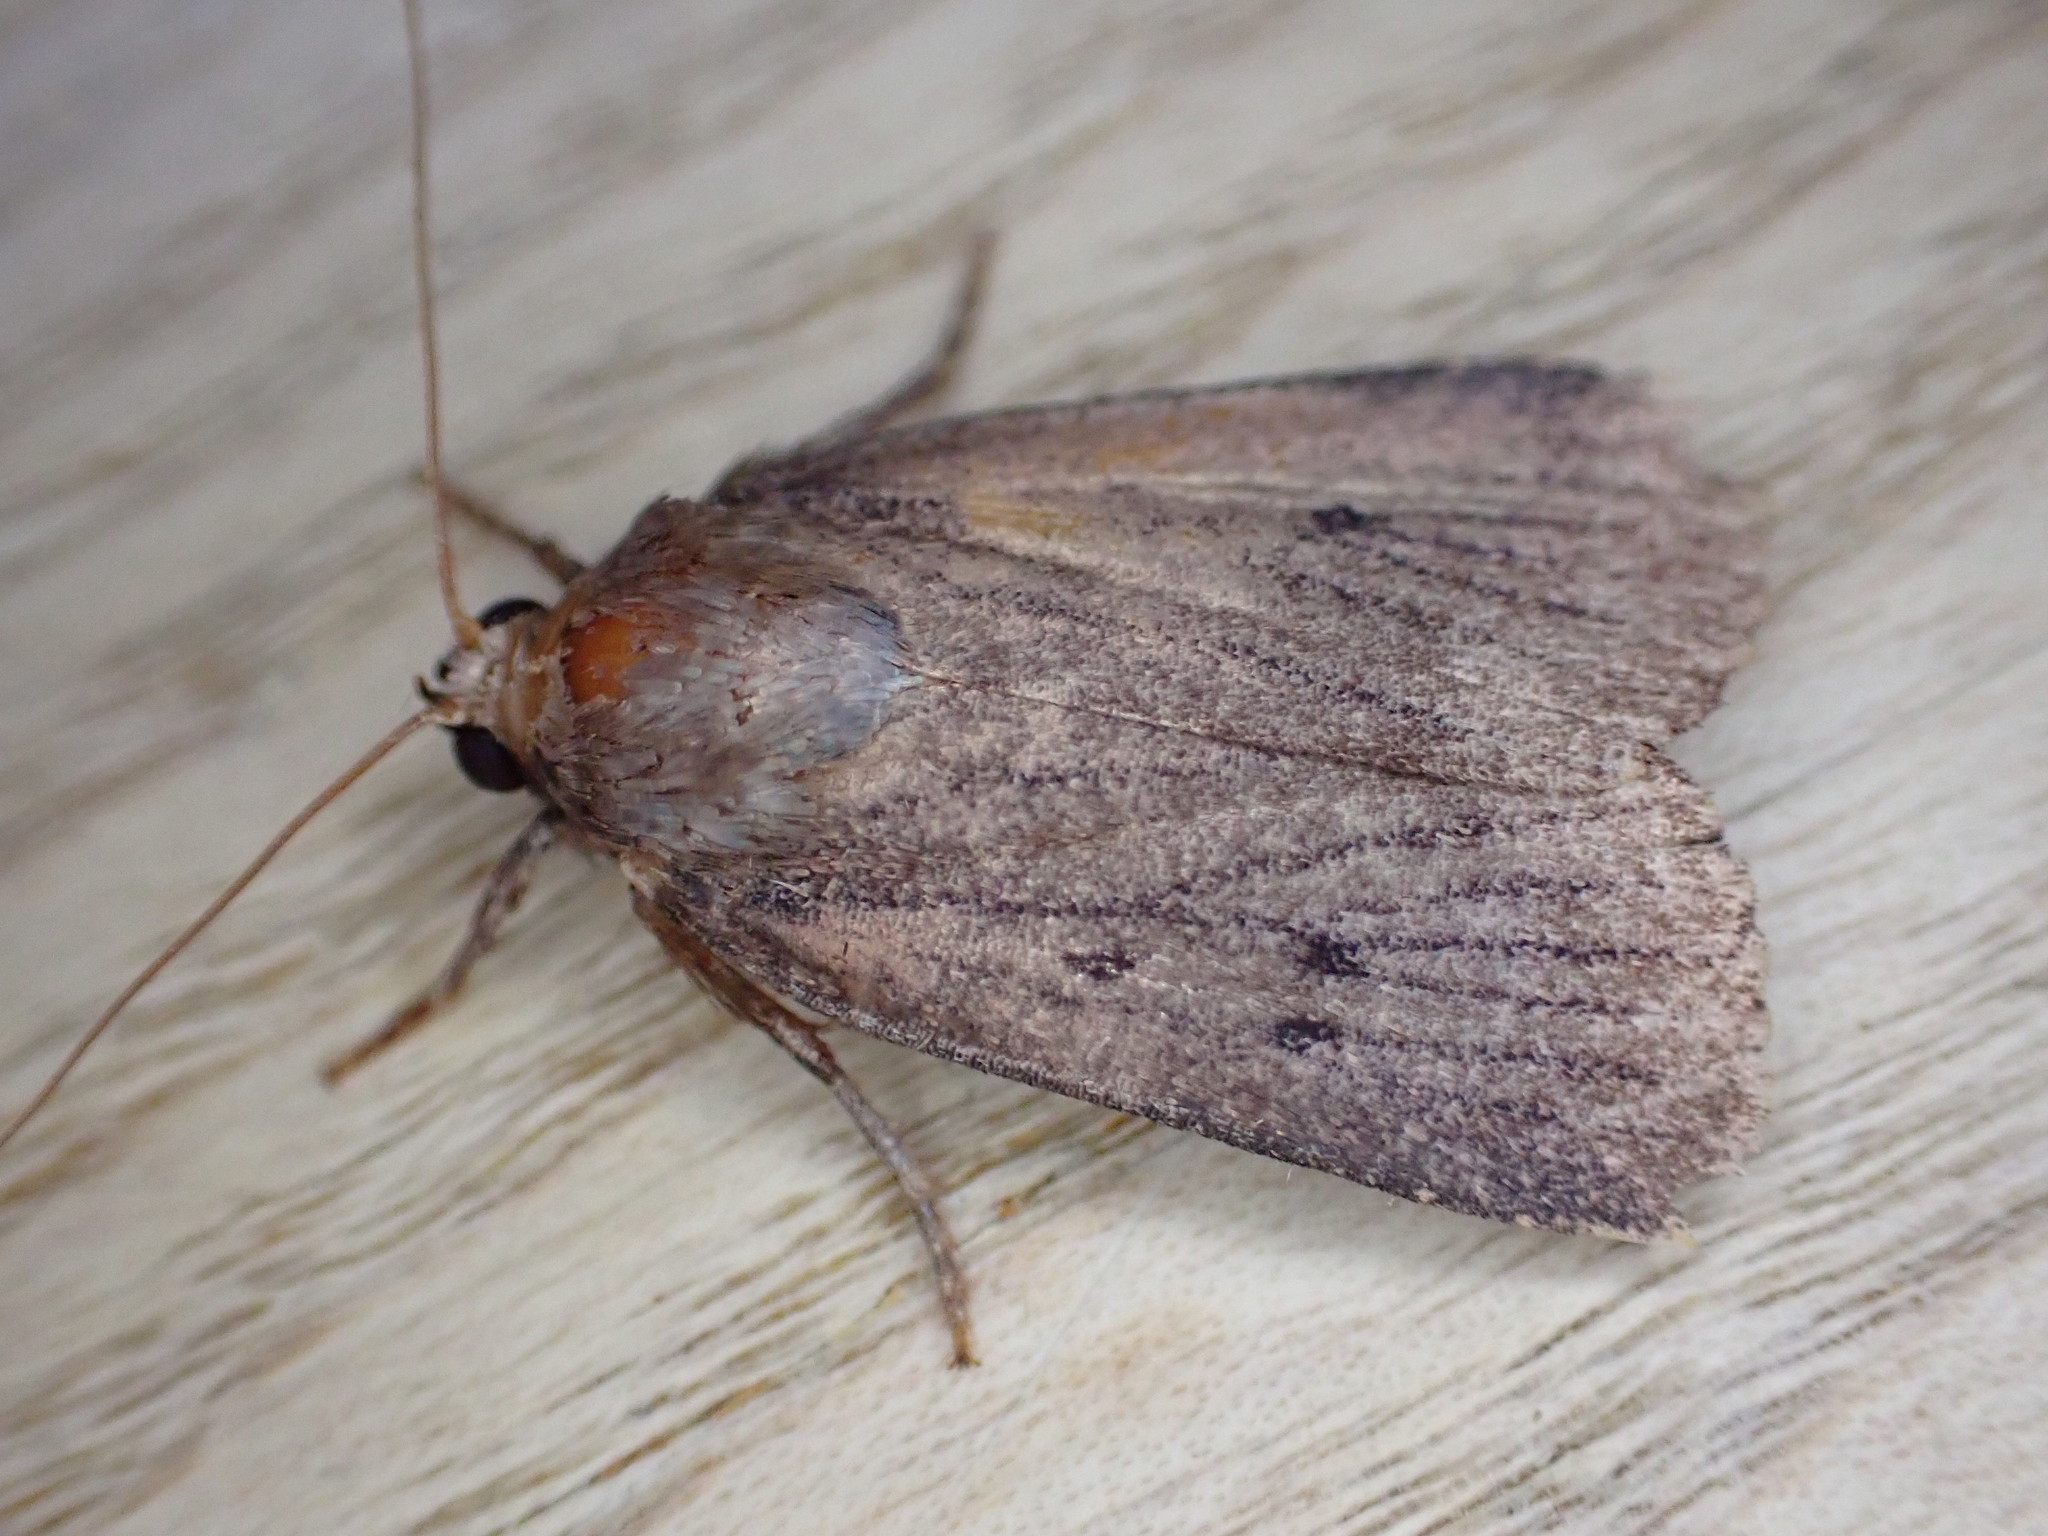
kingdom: Animalia
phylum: Arthropoda
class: Insecta
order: Lepidoptera
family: Noctuidae
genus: Amphipyra
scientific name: Amphipyra tragopoginis
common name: Mouse moth
